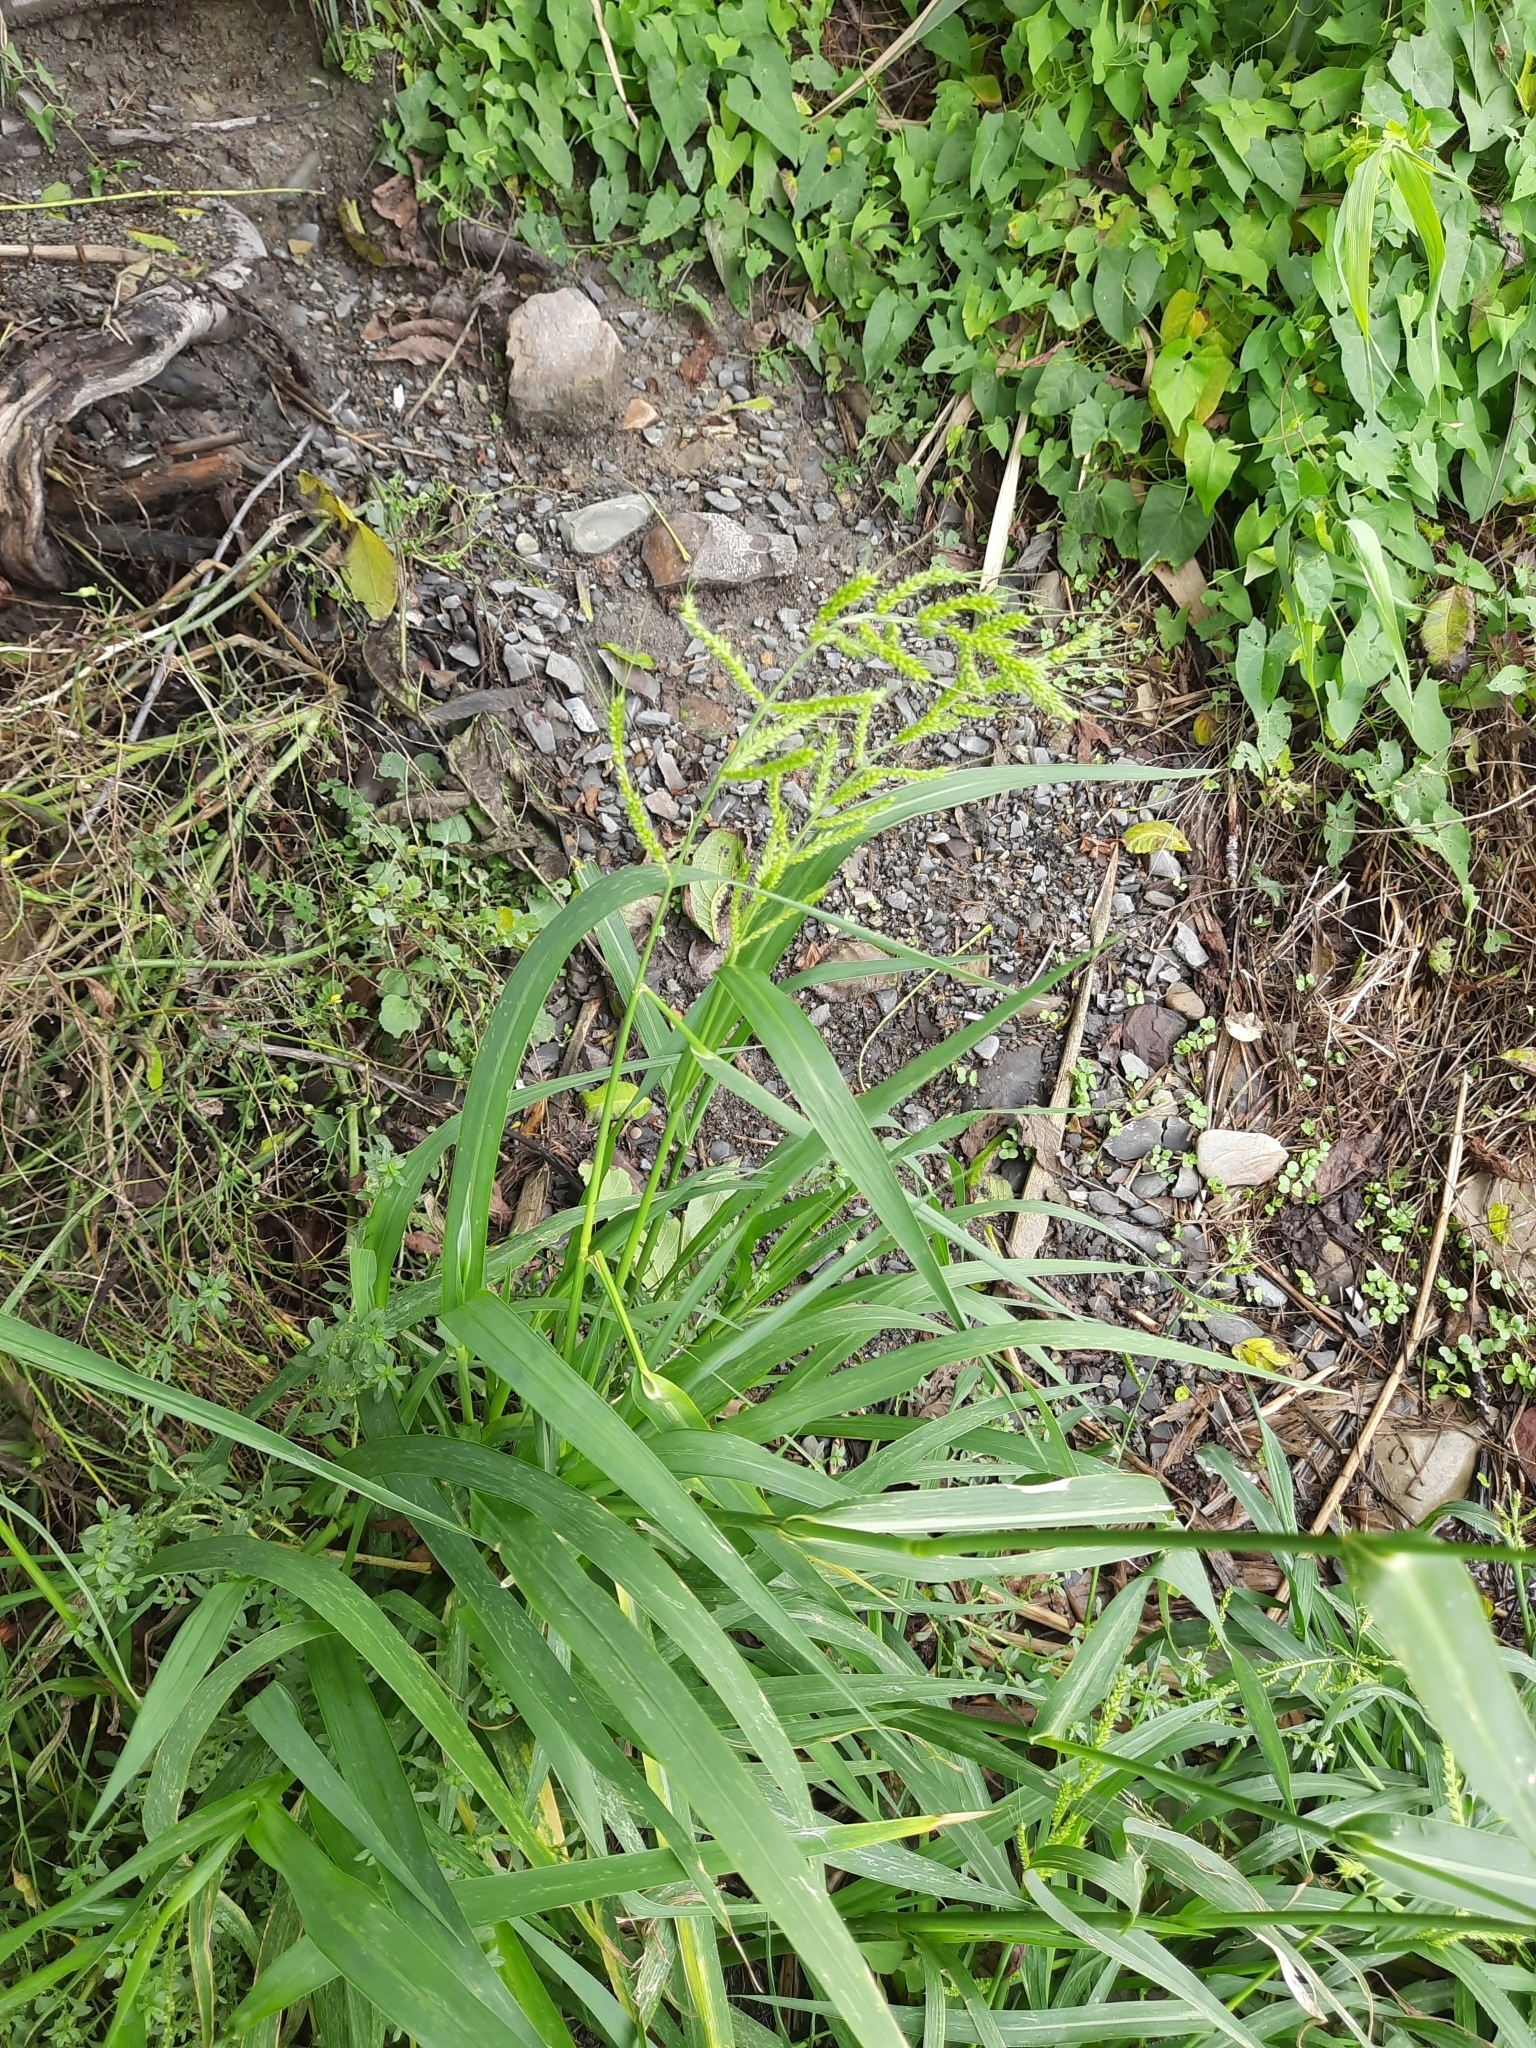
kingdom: Plantae
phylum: Tracheophyta
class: Liliopsida
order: Poales
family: Poaceae
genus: Echinochloa
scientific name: Echinochloa crus-galli
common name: Cockspur
